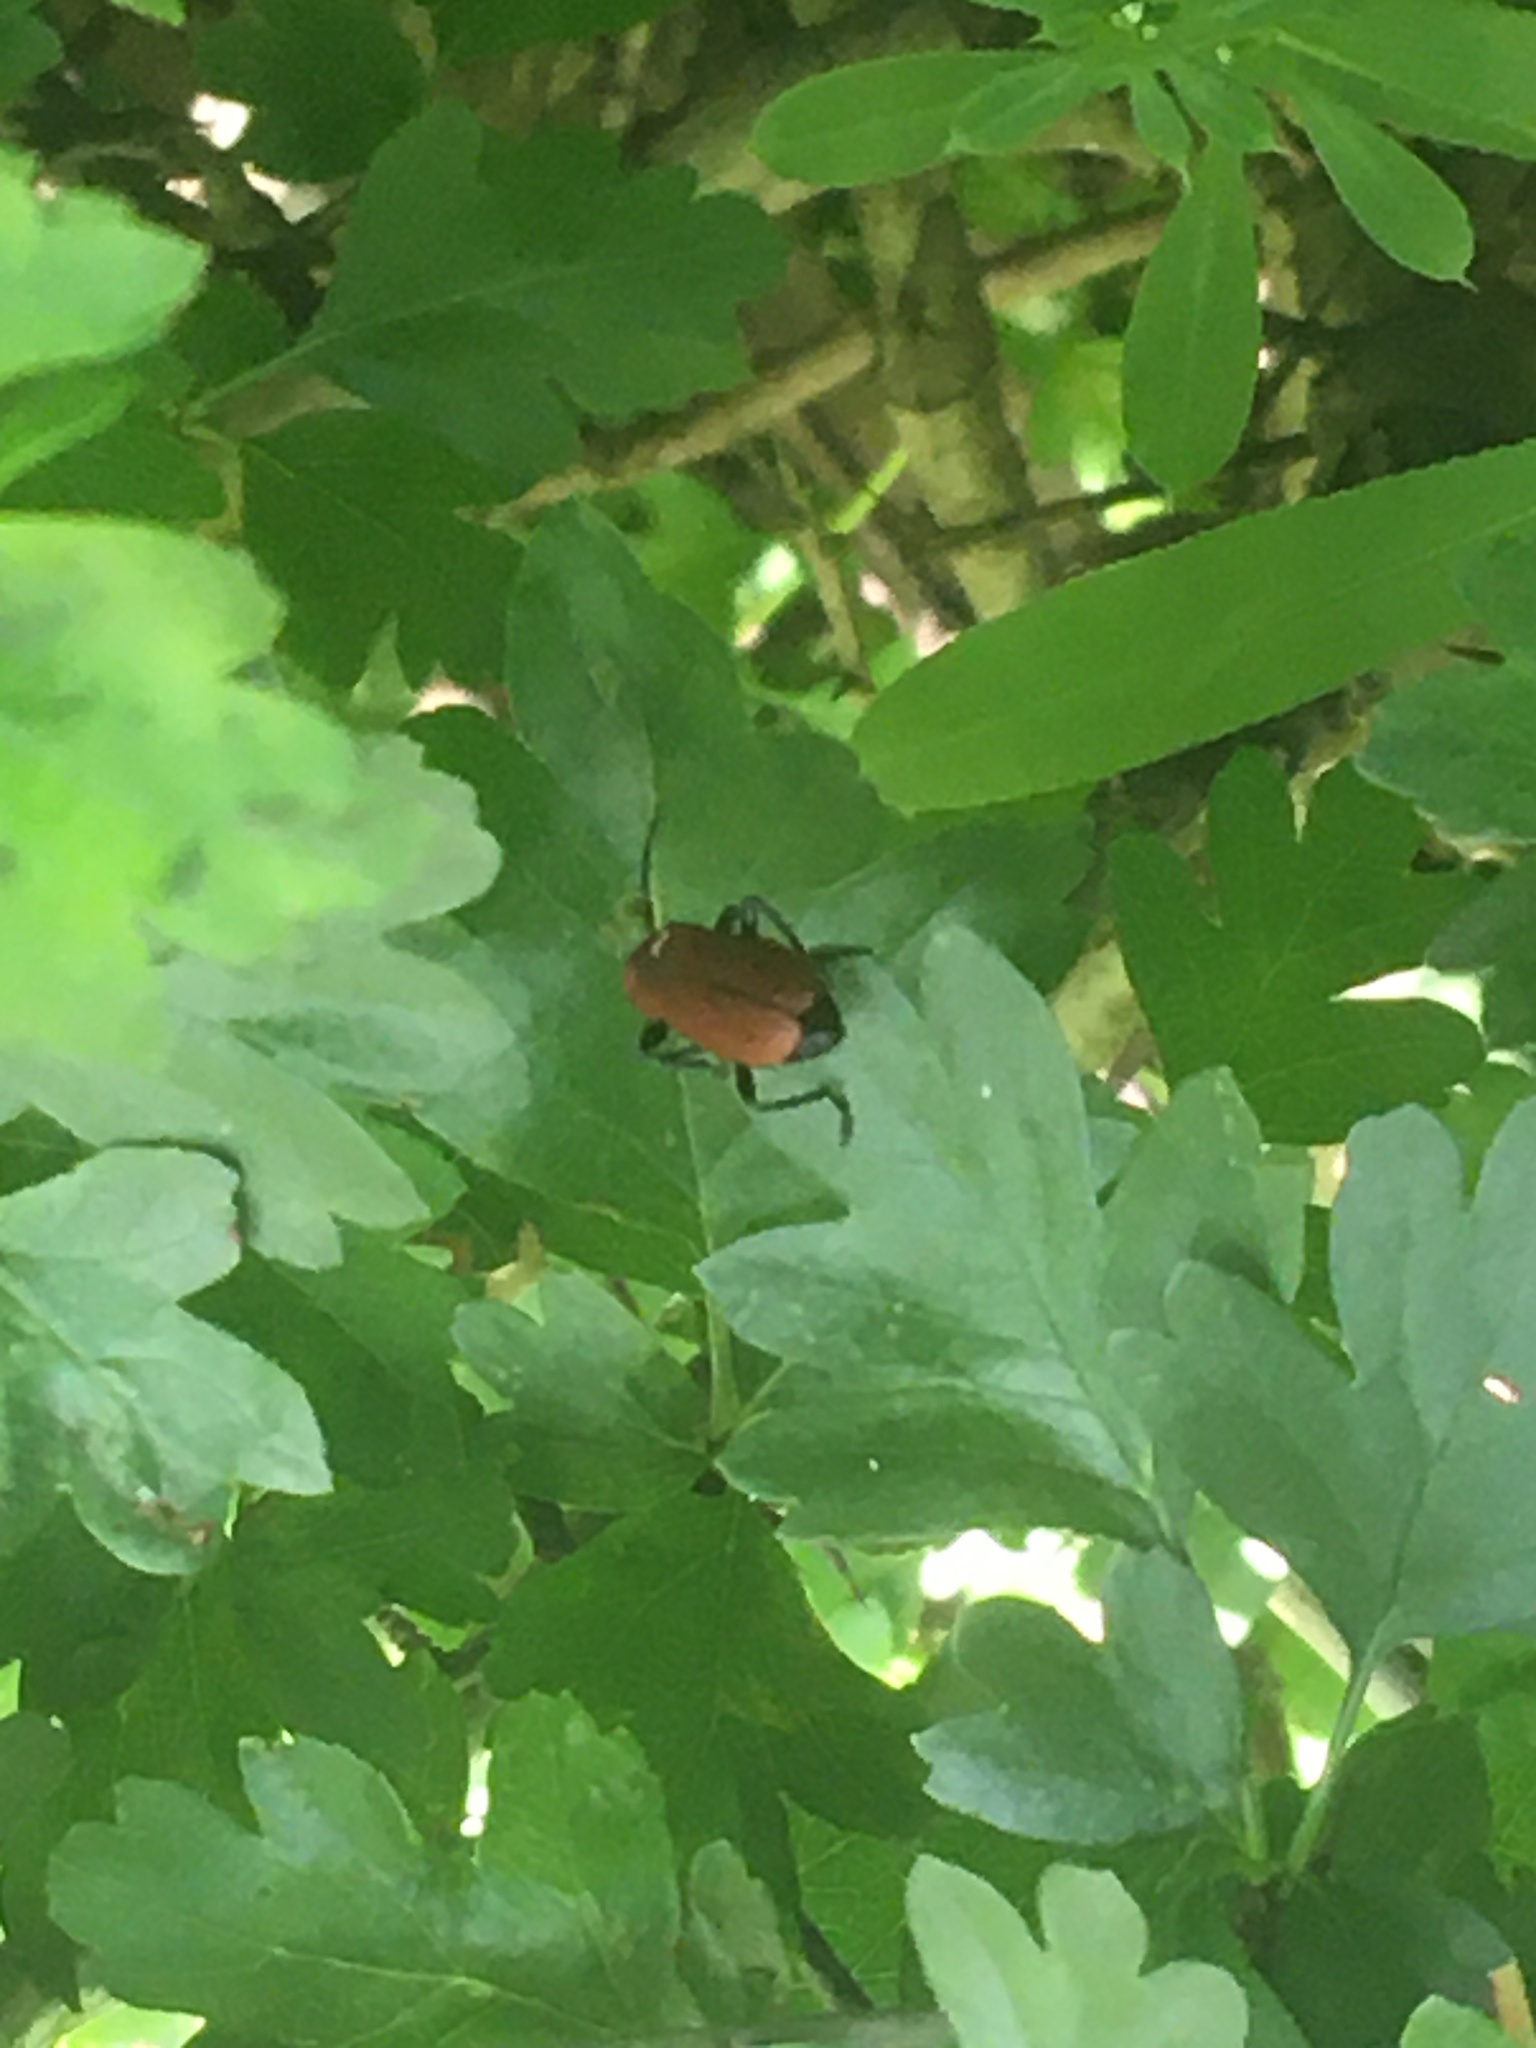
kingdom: Animalia
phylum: Arthropoda
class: Insecta
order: Coleoptera
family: Pyrochroidae
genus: Pyrochroa
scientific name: Pyrochroa serraticornis
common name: Red-headed cardinal beetle
